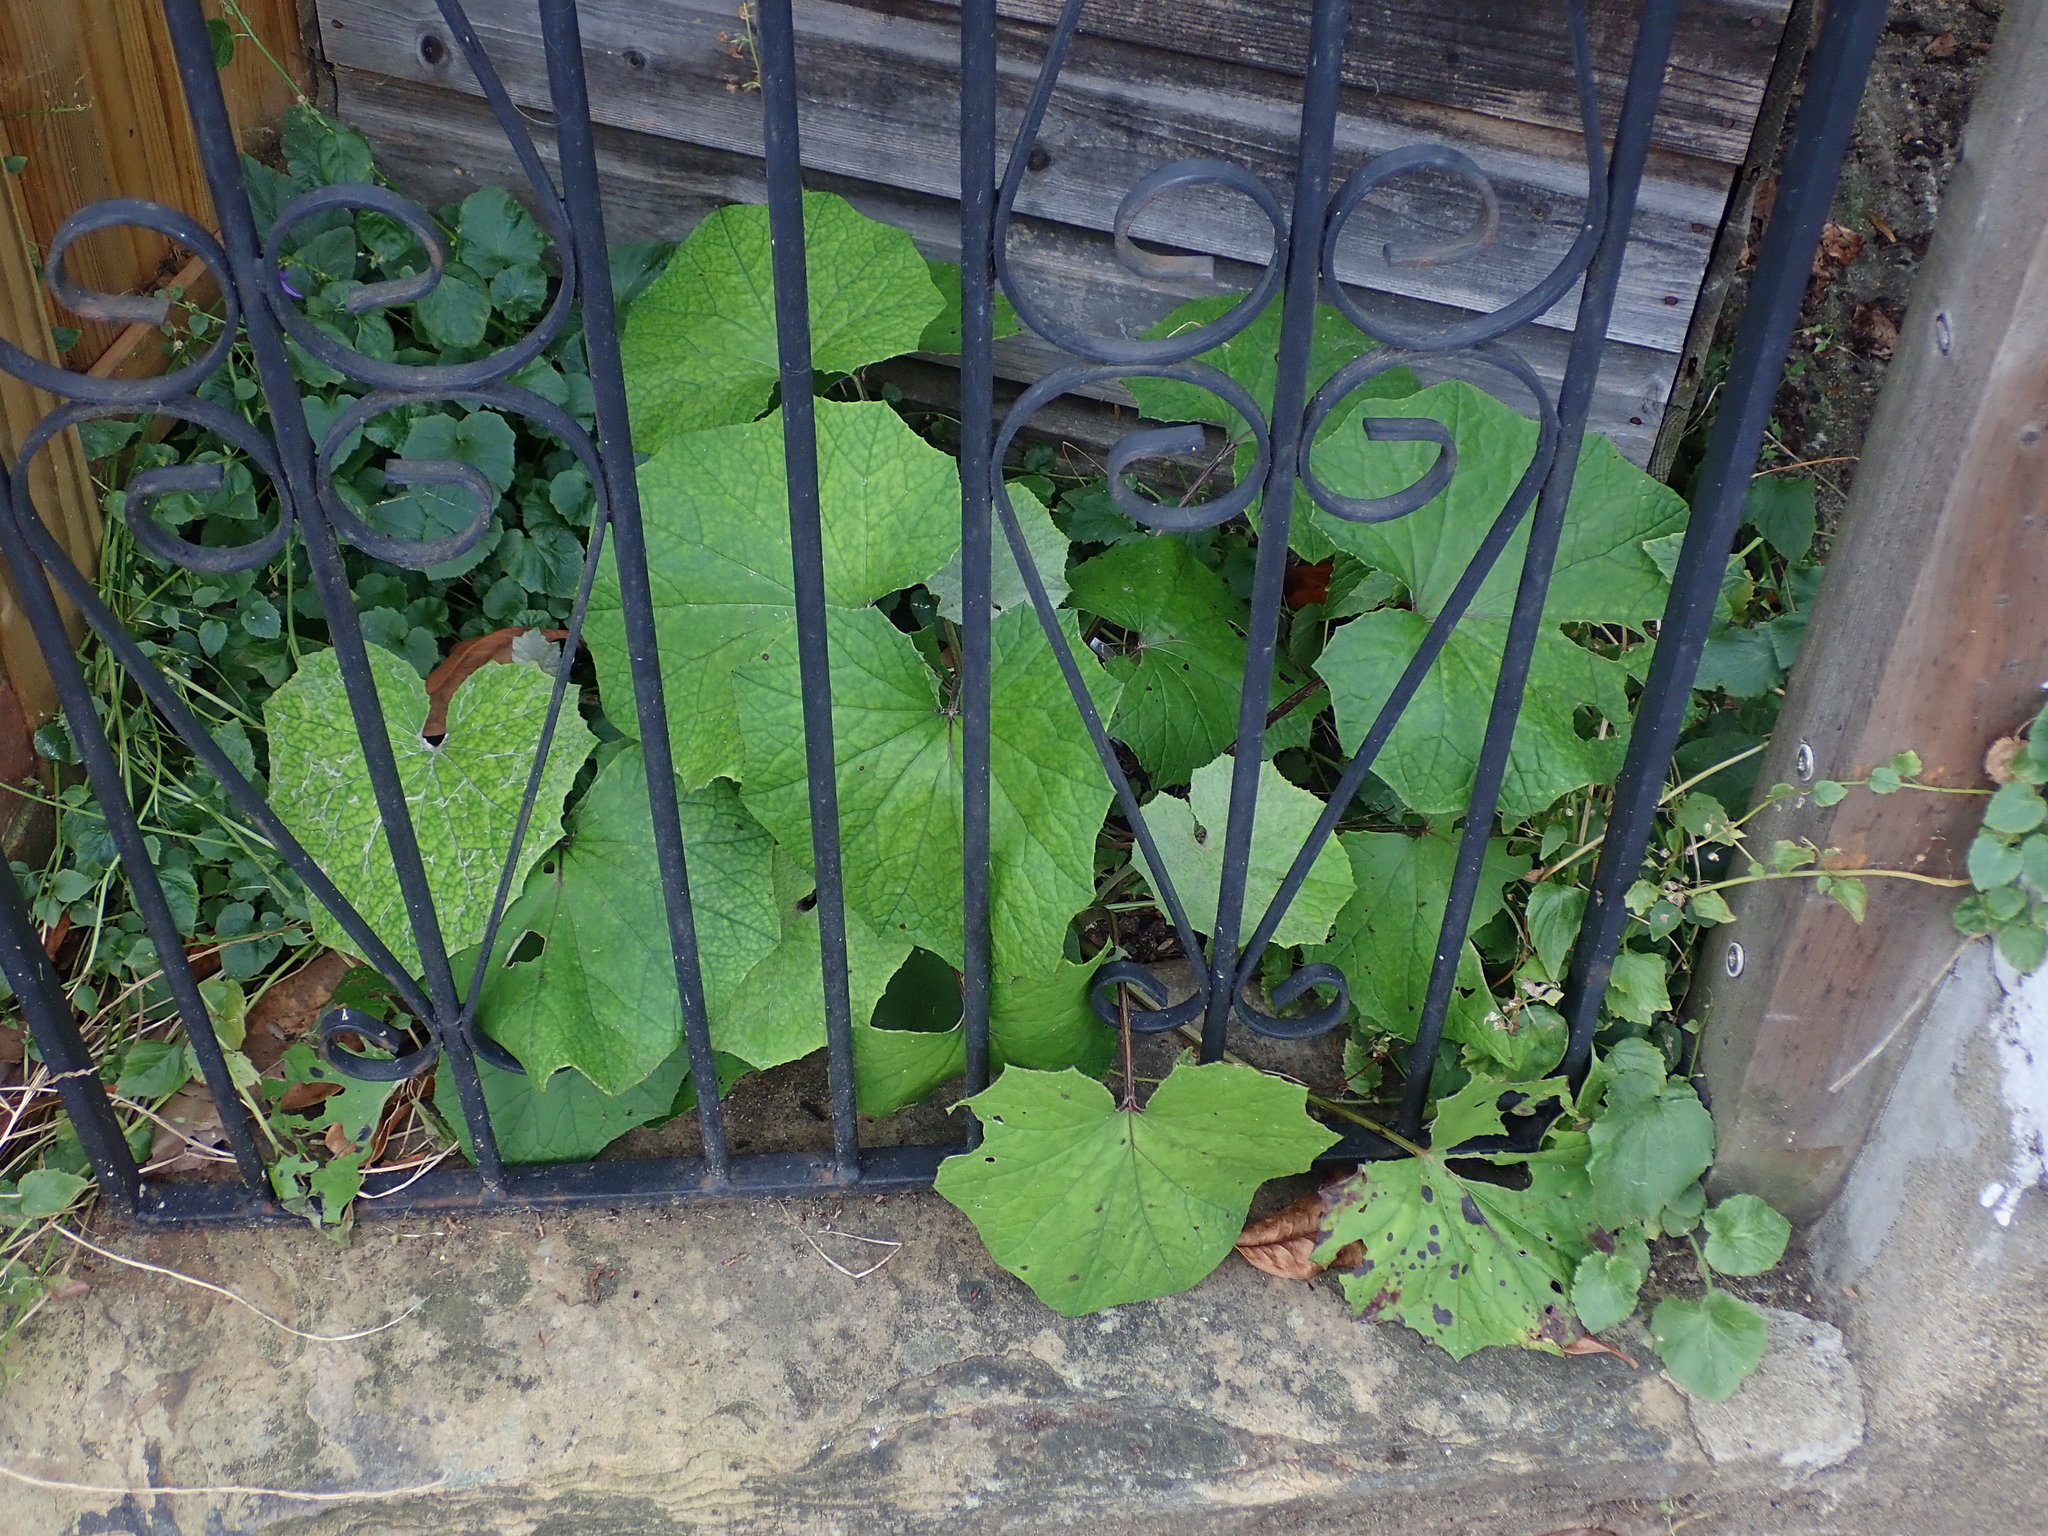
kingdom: Plantae
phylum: Tracheophyta
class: Magnoliopsida
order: Asterales
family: Asteraceae
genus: Tussilago
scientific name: Tussilago farfara
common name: Coltsfoot
